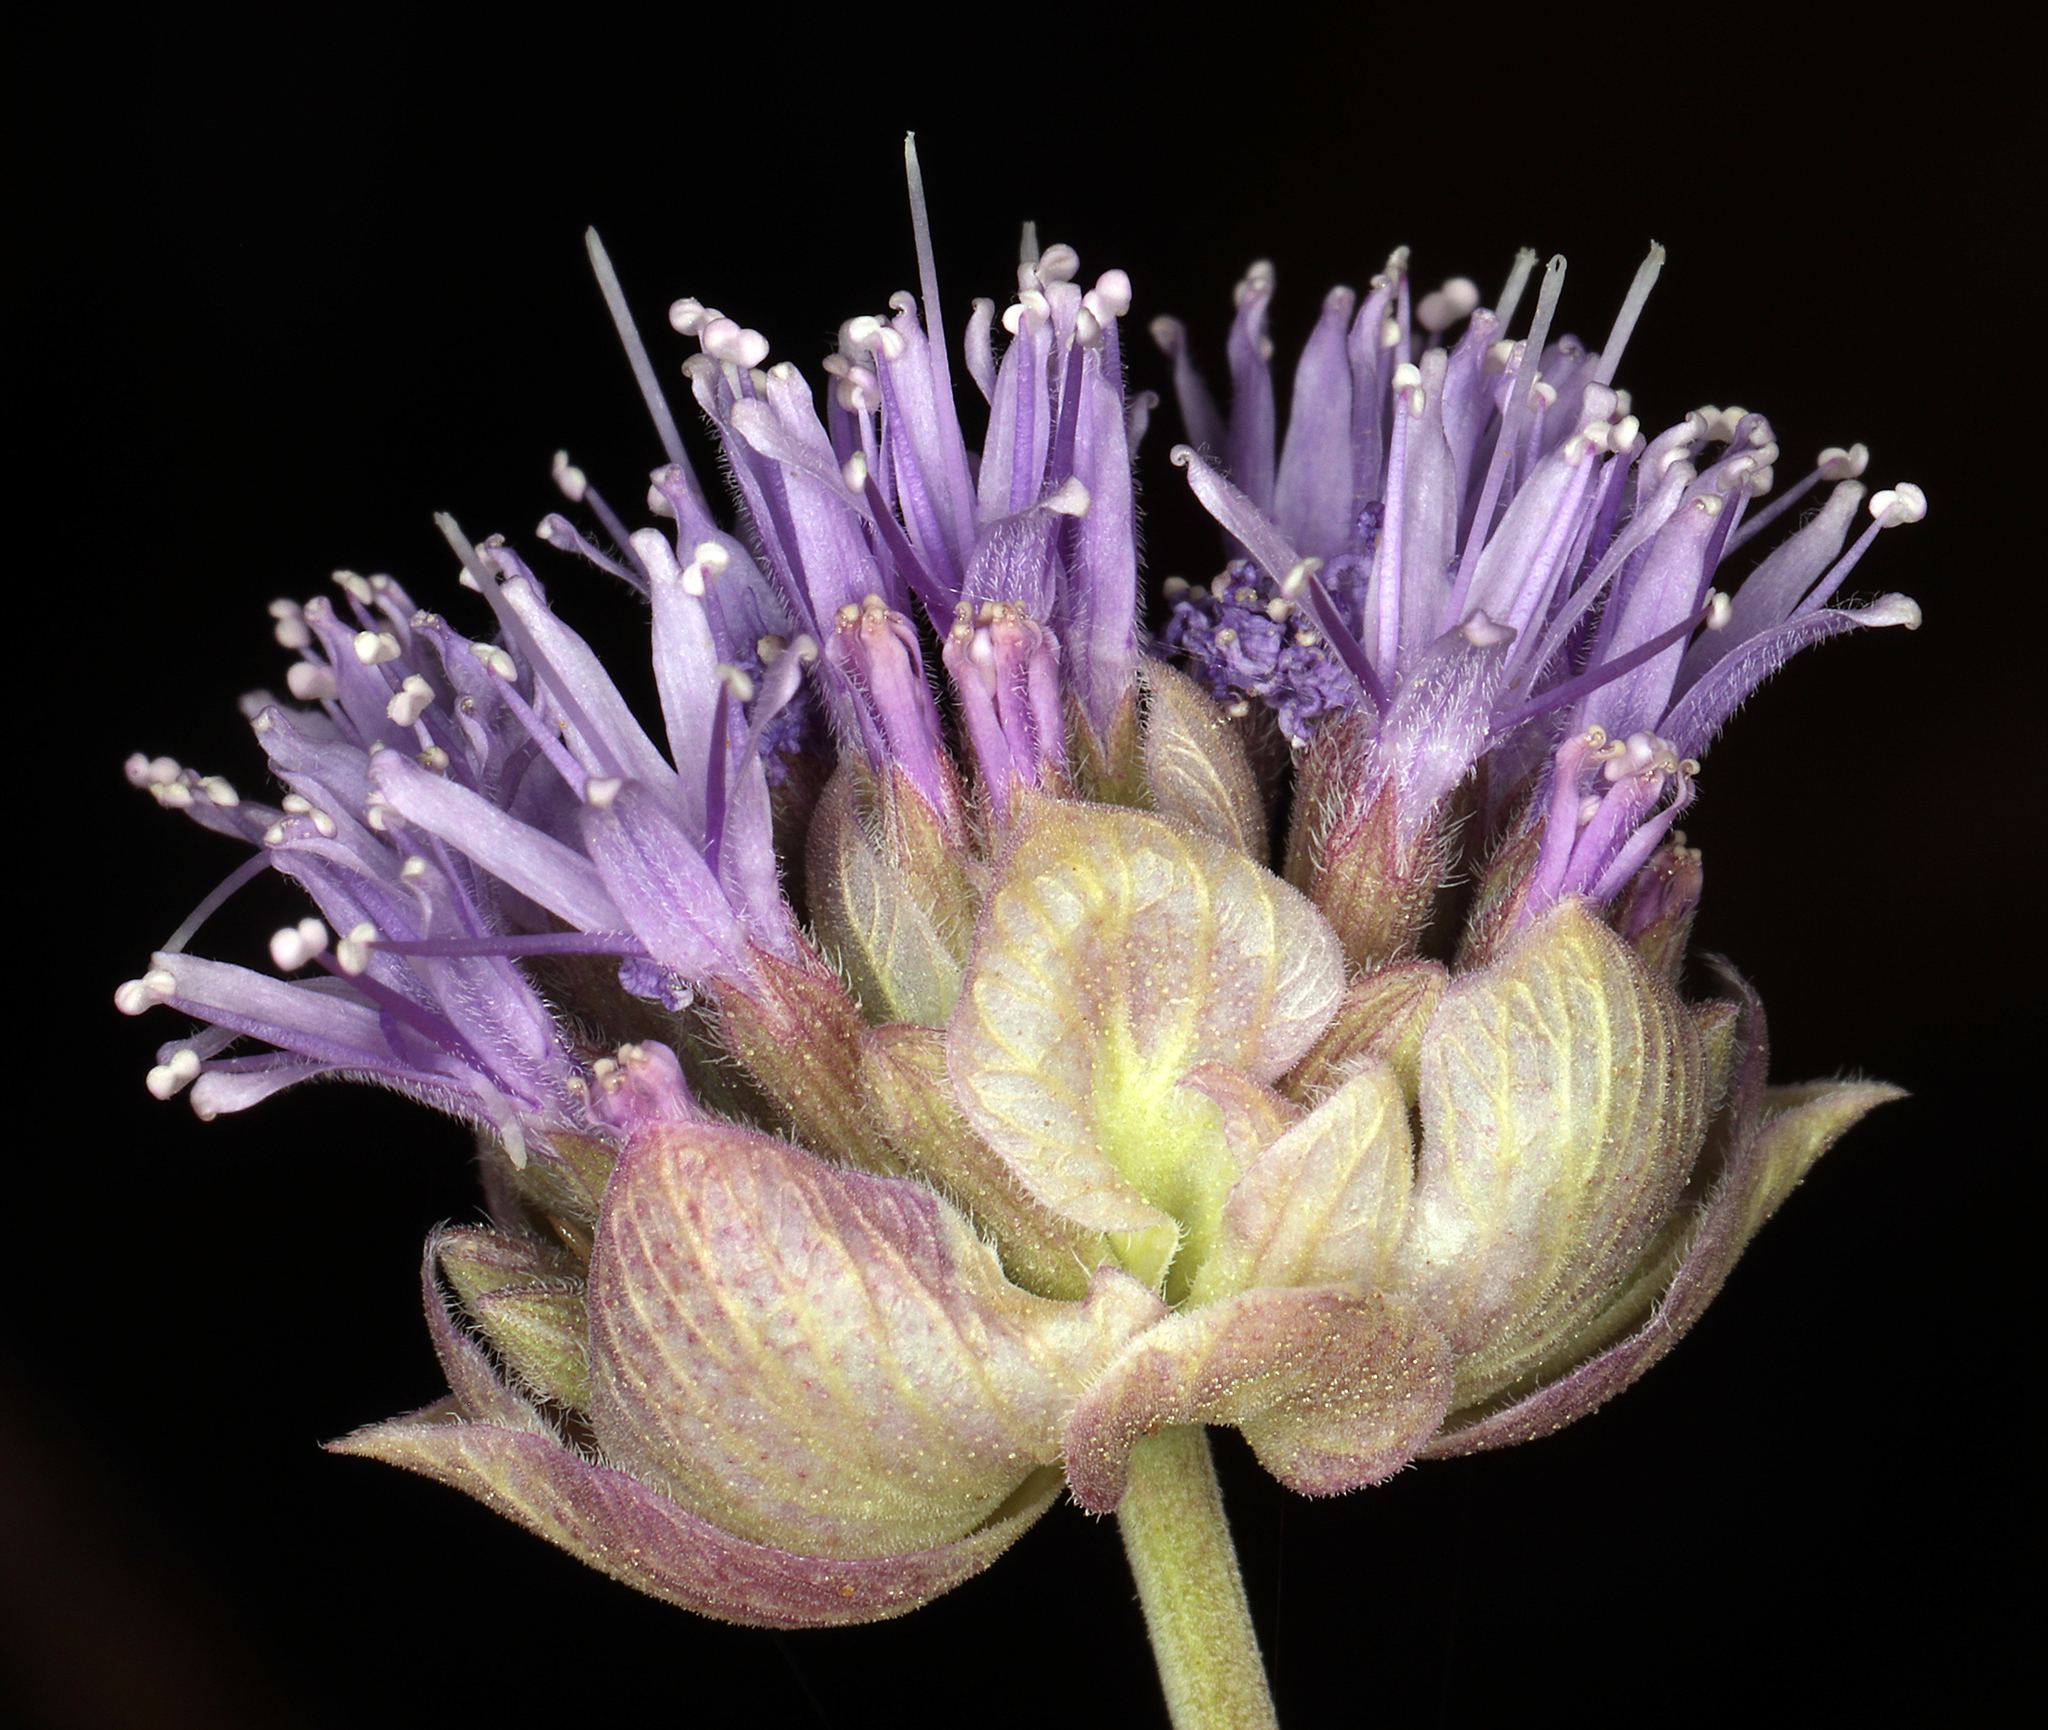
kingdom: Plantae
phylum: Tracheophyta
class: Magnoliopsida
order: Lamiales
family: Lamiaceae
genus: Monardella
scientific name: Monardella linoides
